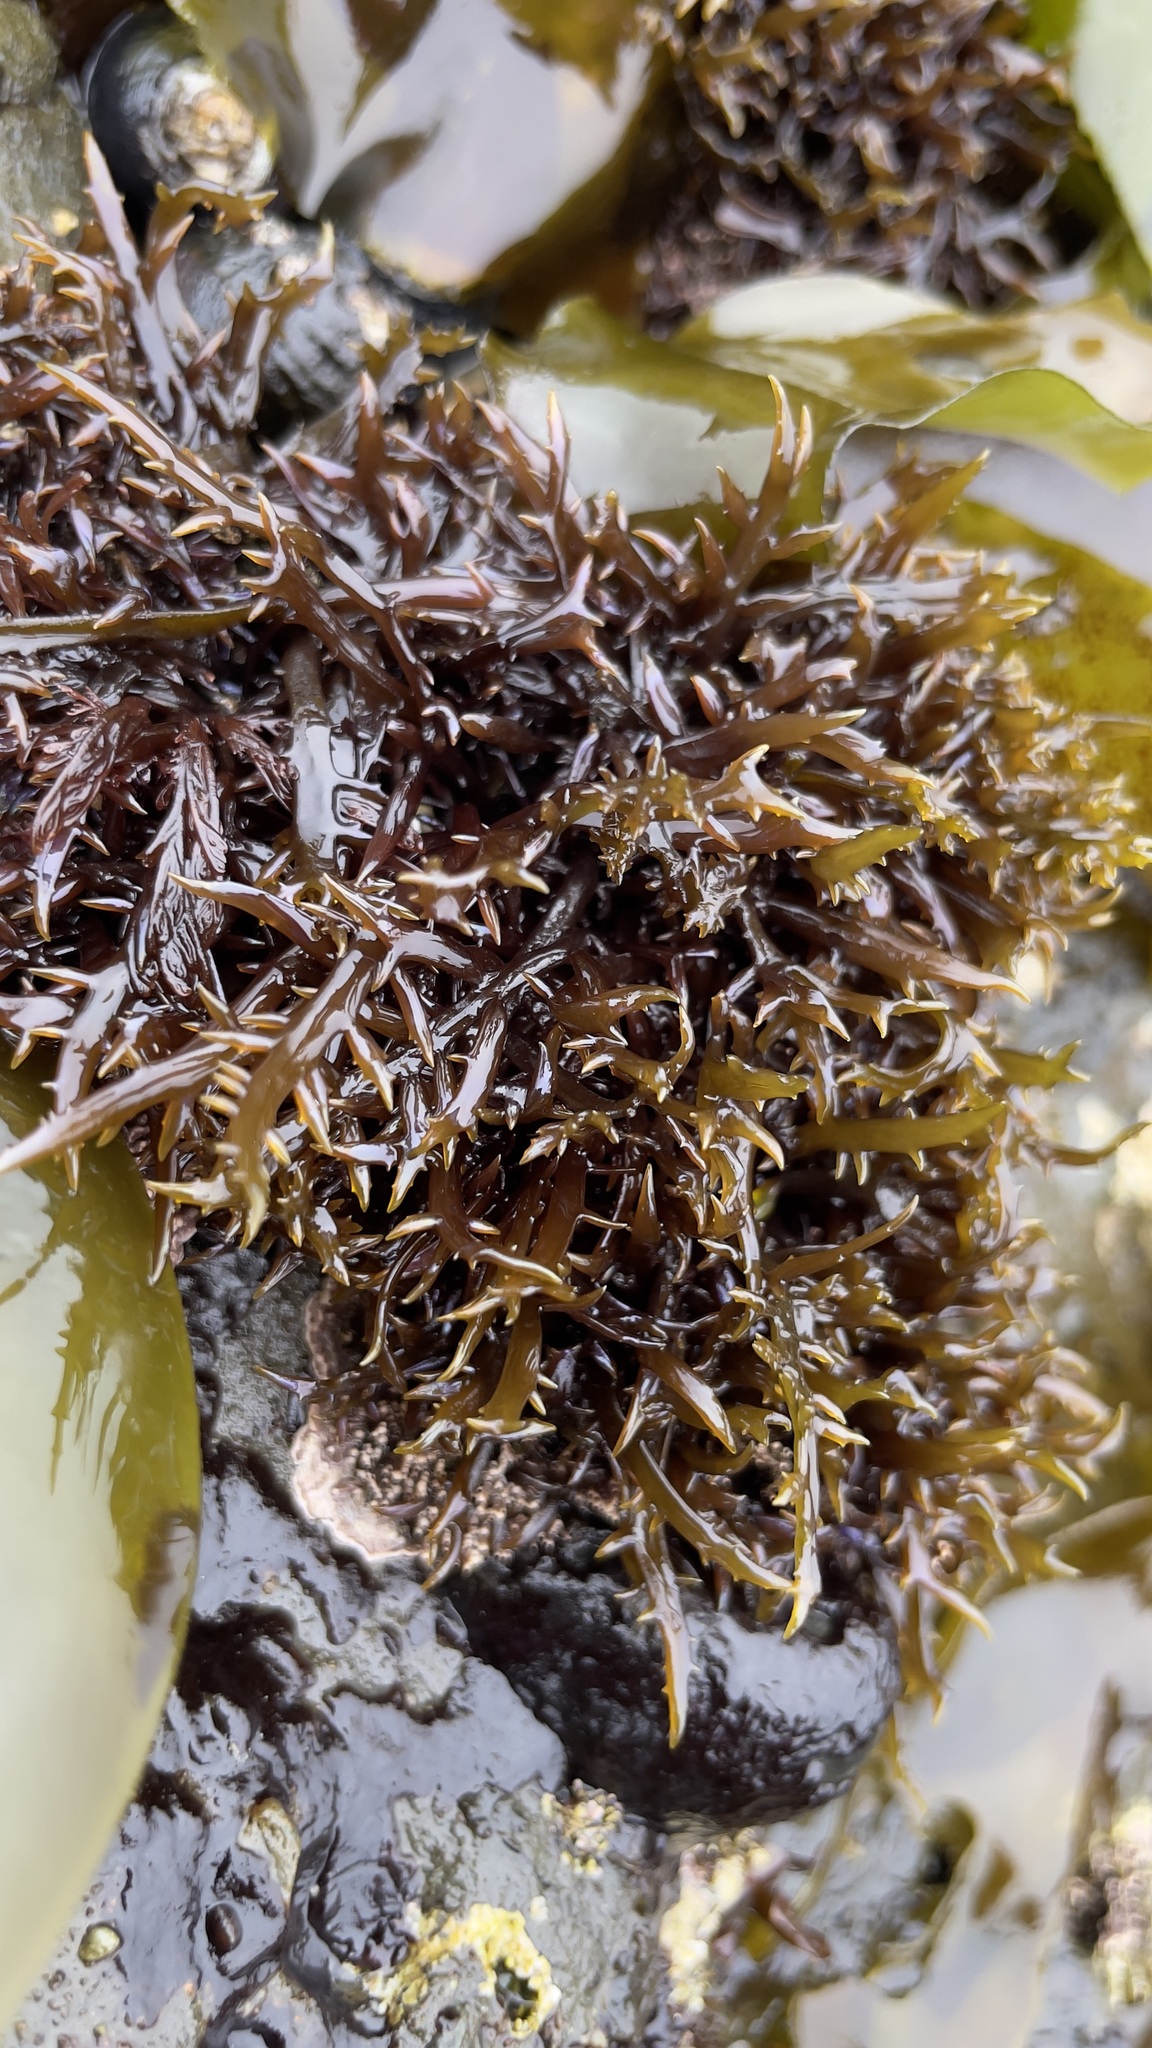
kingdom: Plantae
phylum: Rhodophyta
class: Florideophyceae
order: Gigartinales
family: Gigartinaceae
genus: Chondracanthus
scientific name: Chondracanthus canaliculatus
